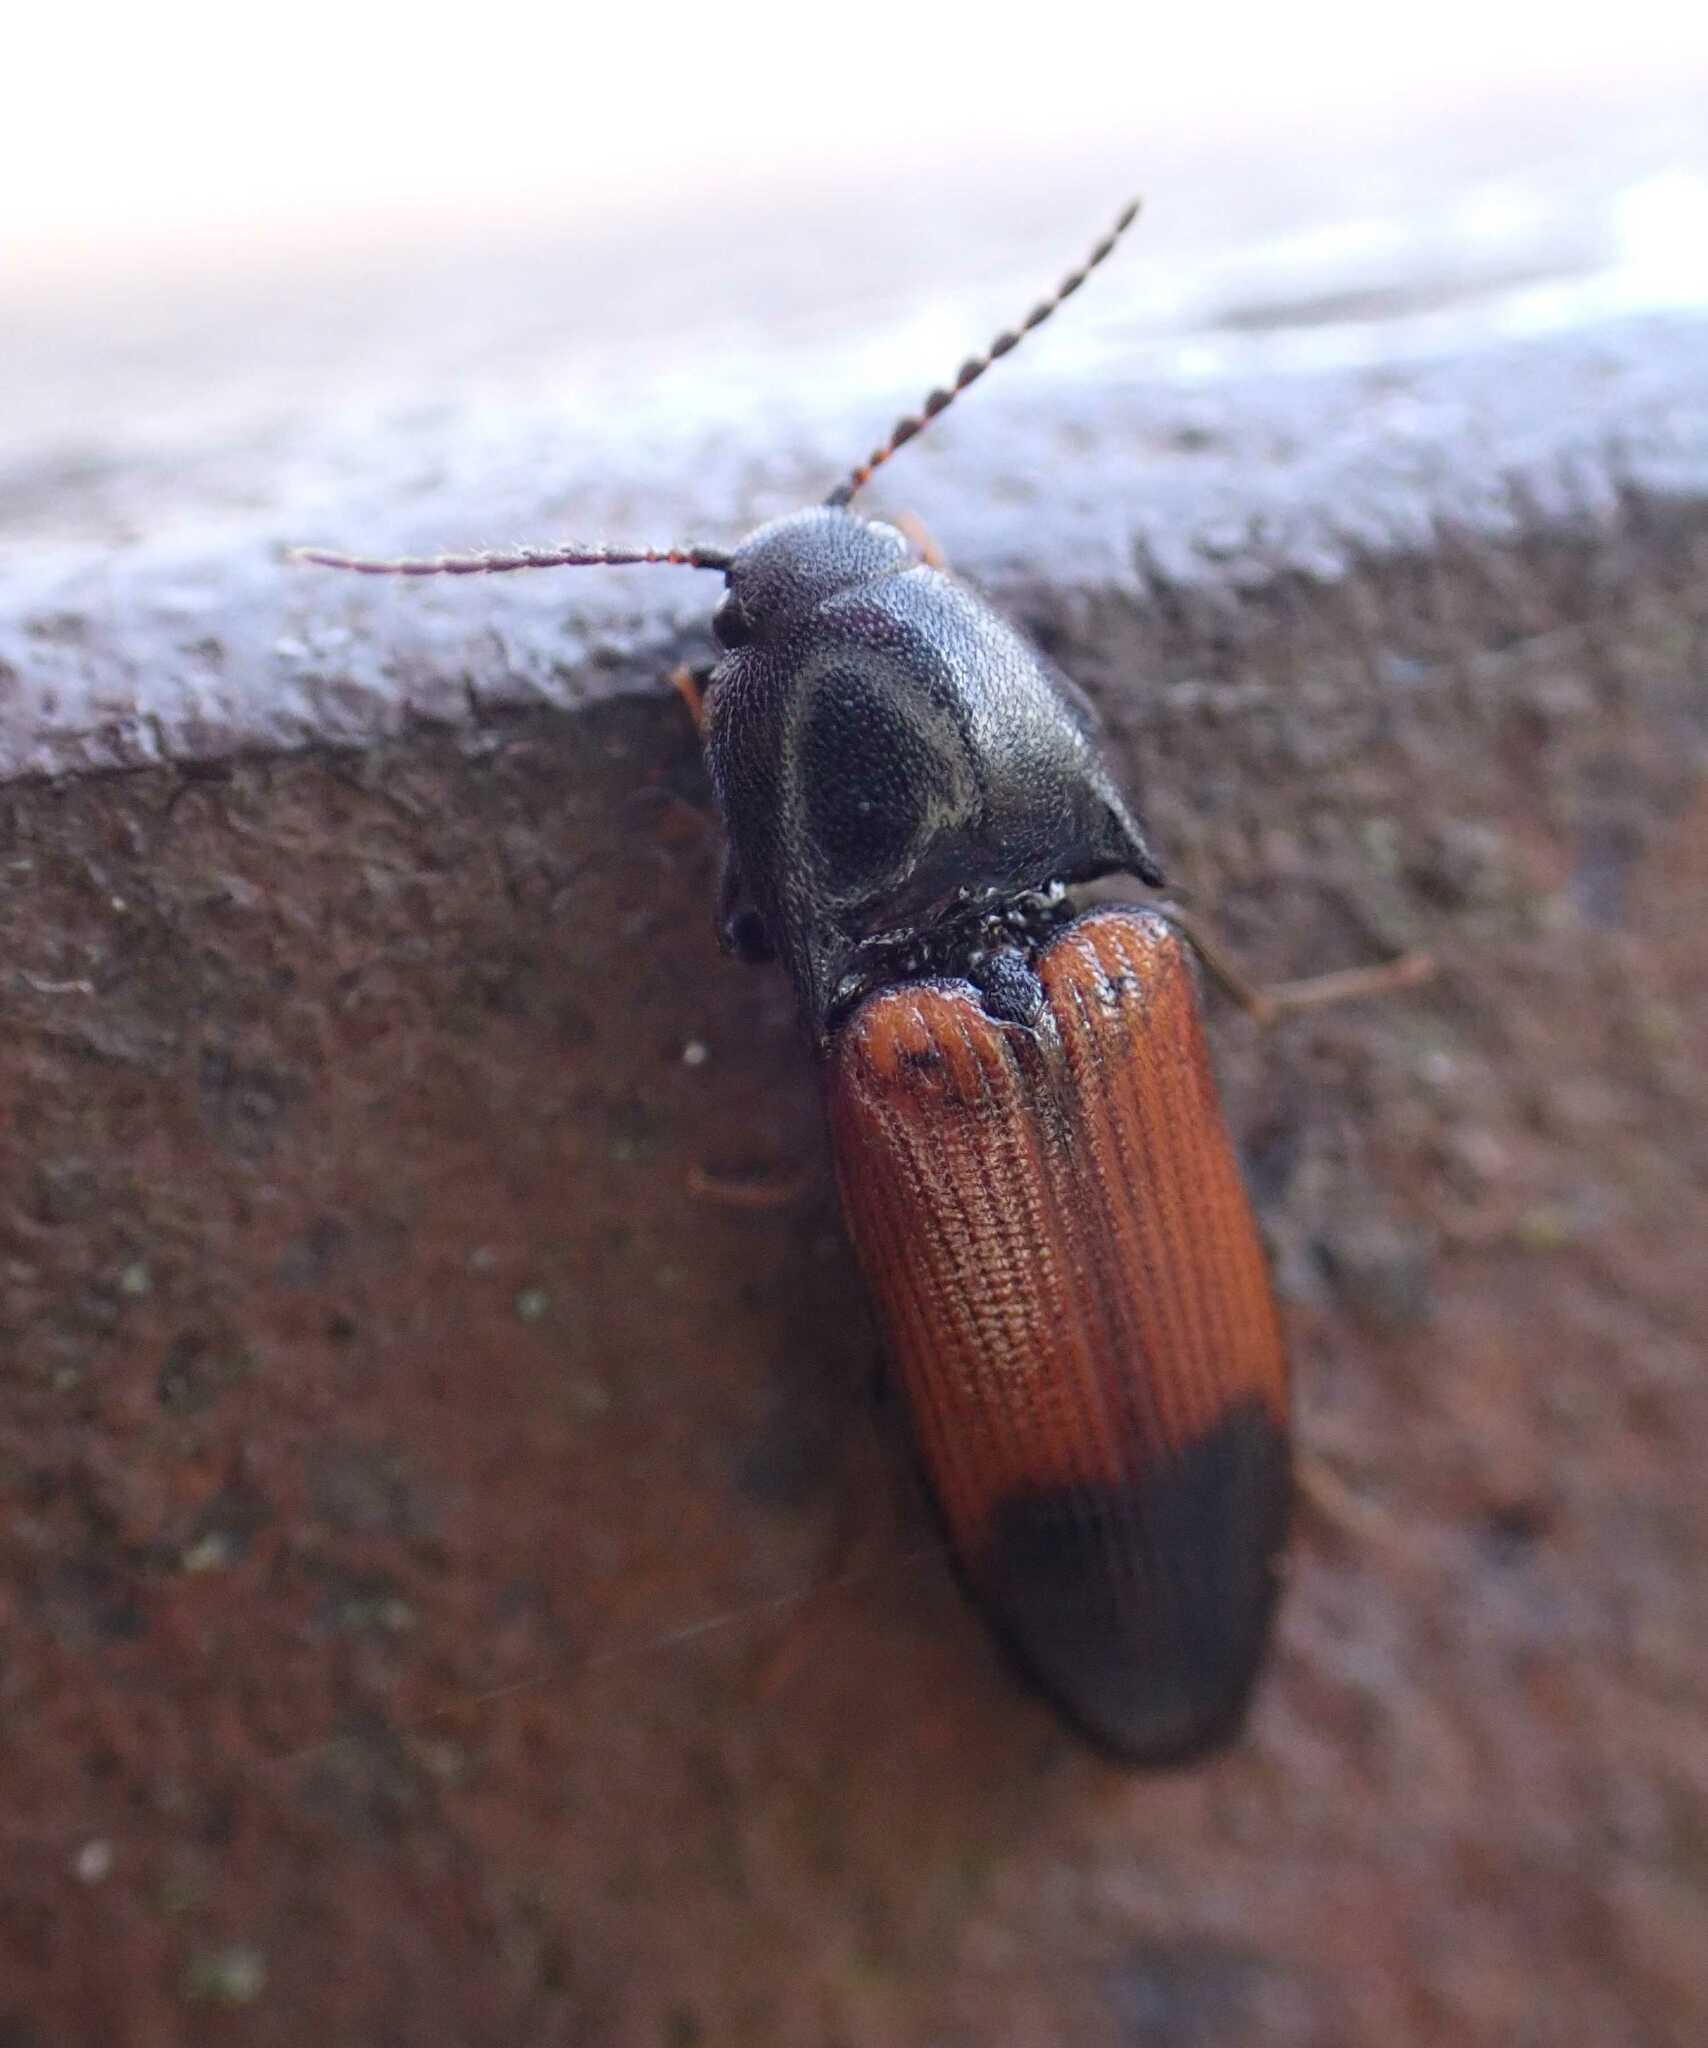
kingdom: Animalia
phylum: Arthropoda
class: Insecta
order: Coleoptera
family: Elateridae
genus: Ampedus
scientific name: Ampedus balteatus
